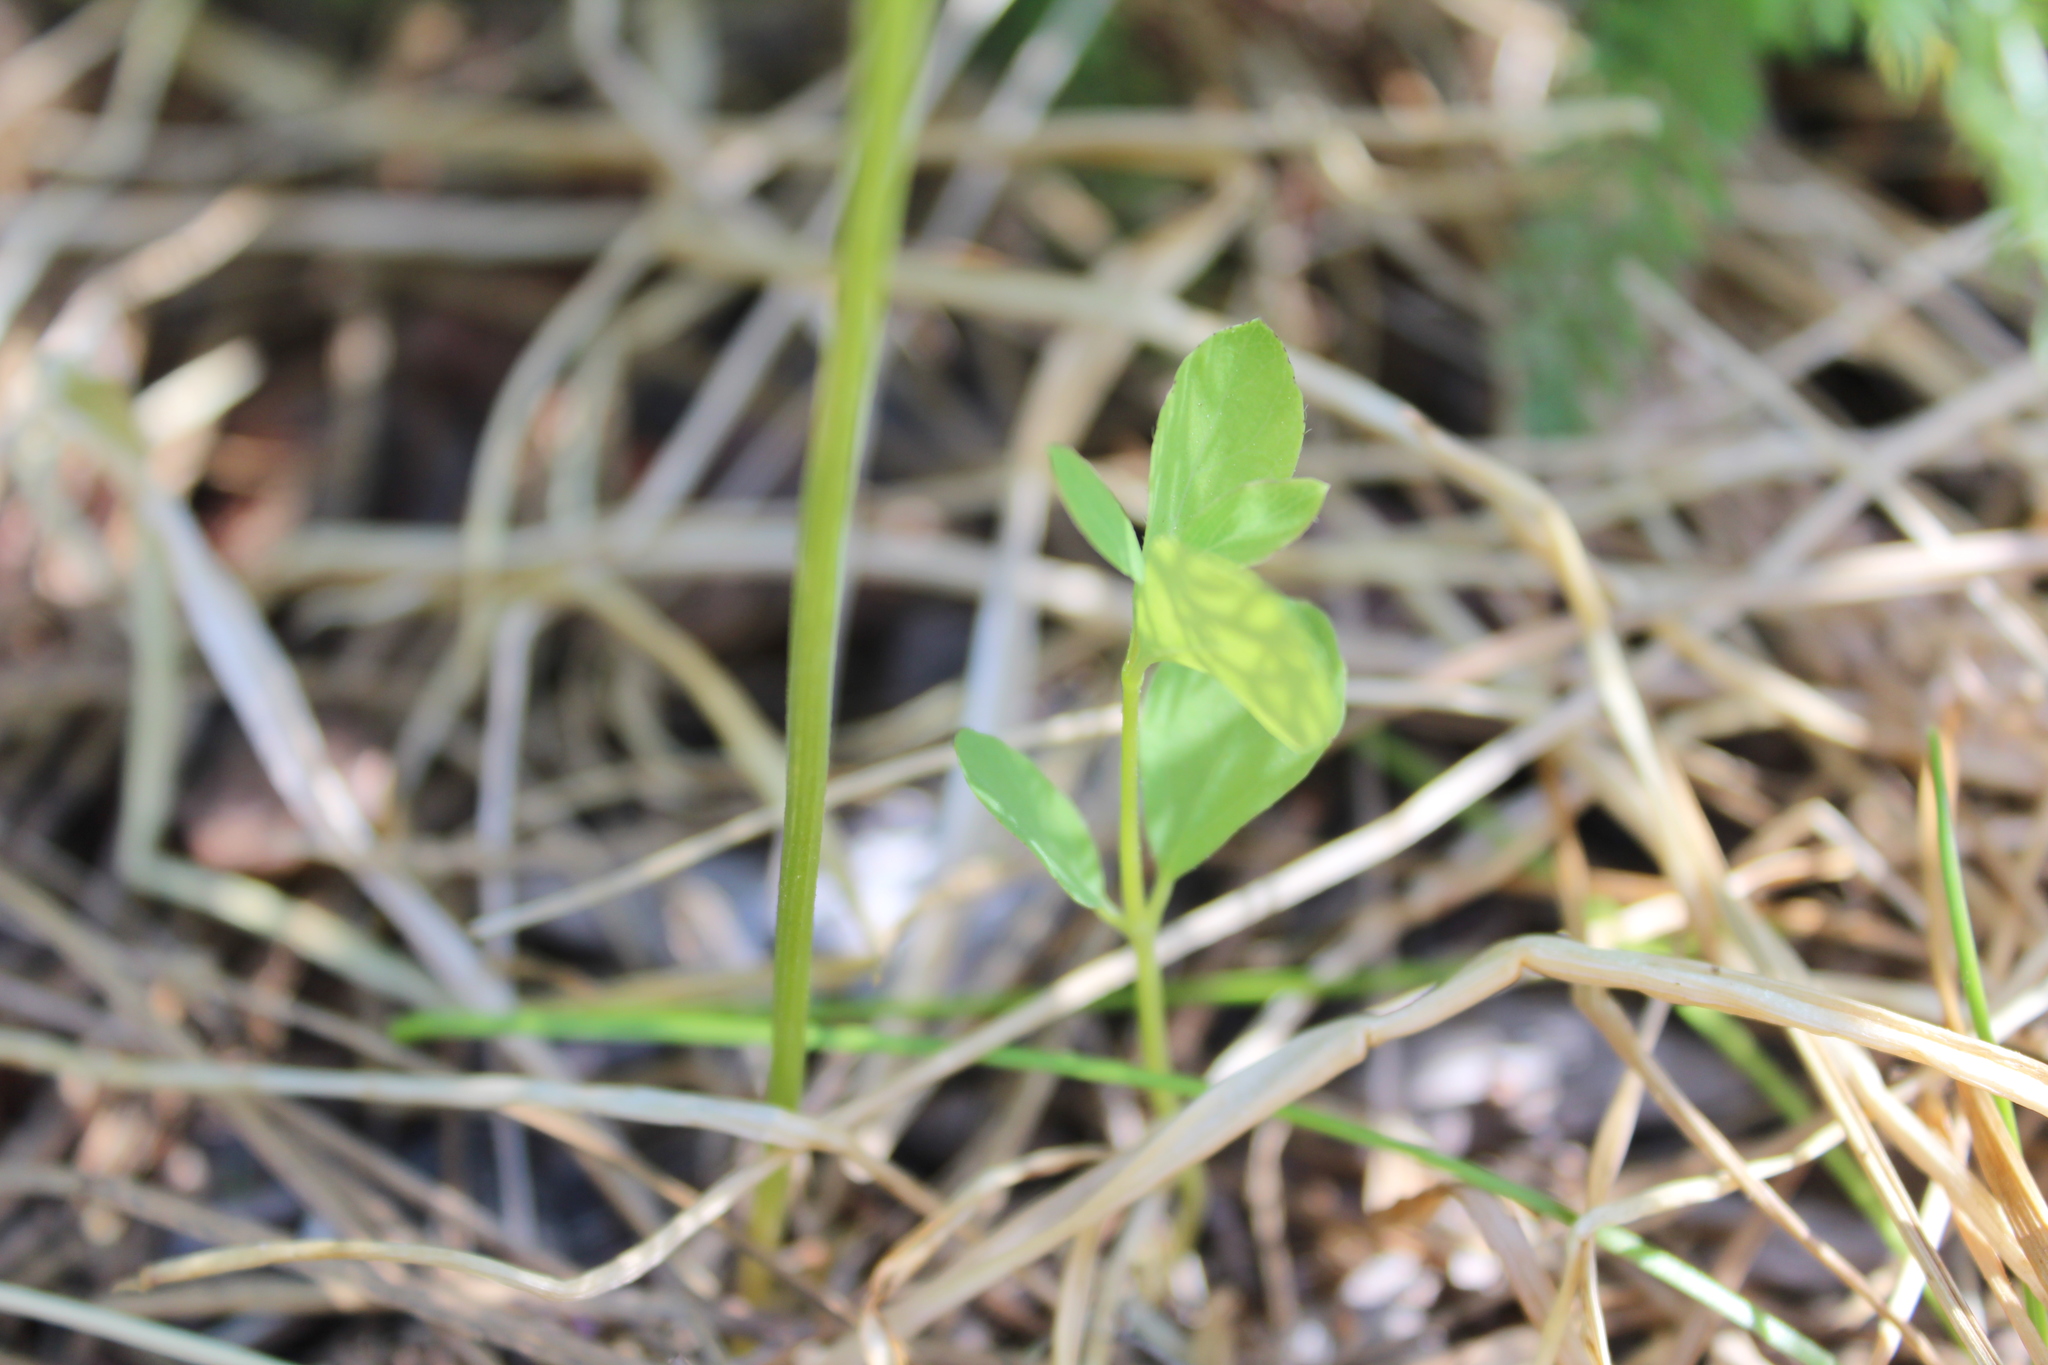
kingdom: Plantae
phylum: Tracheophyta
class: Liliopsida
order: Liliales
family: Melanthiaceae
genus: Toxicoscordion
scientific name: Toxicoscordion paniculatum
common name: Foothill death camas
